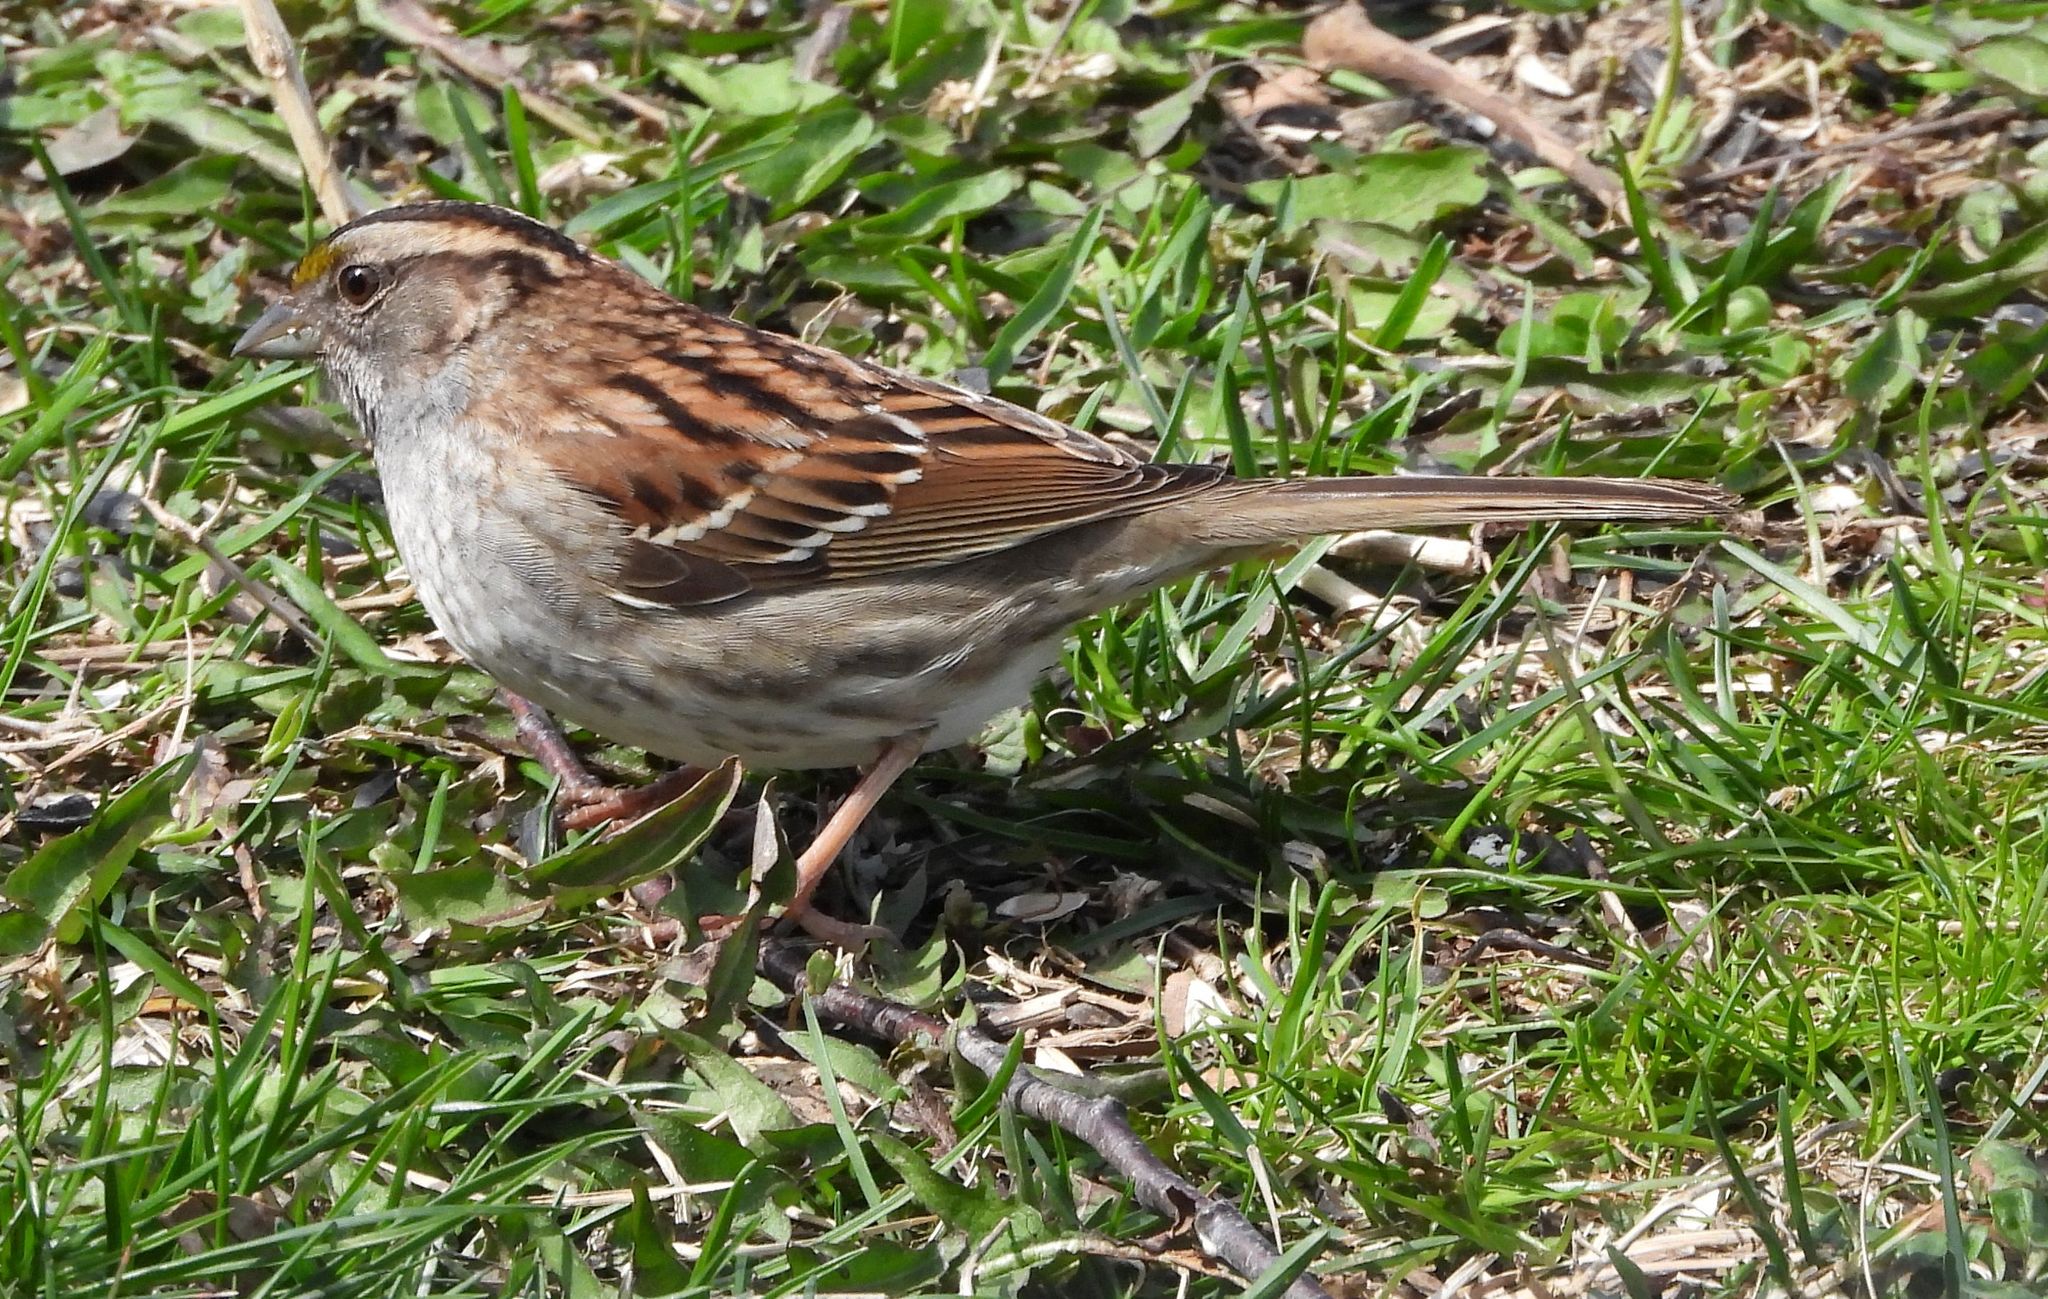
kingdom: Animalia
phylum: Chordata
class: Aves
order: Passeriformes
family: Passerellidae
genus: Zonotrichia
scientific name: Zonotrichia albicollis
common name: White-throated sparrow
